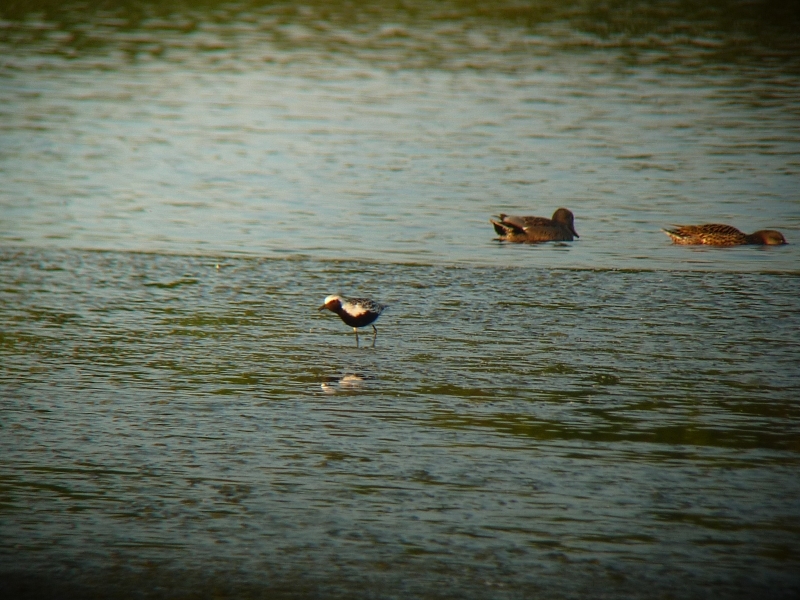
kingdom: Animalia
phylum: Chordata
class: Aves
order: Charadriiformes
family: Charadriidae
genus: Pluvialis
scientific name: Pluvialis squatarola
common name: Grey plover
